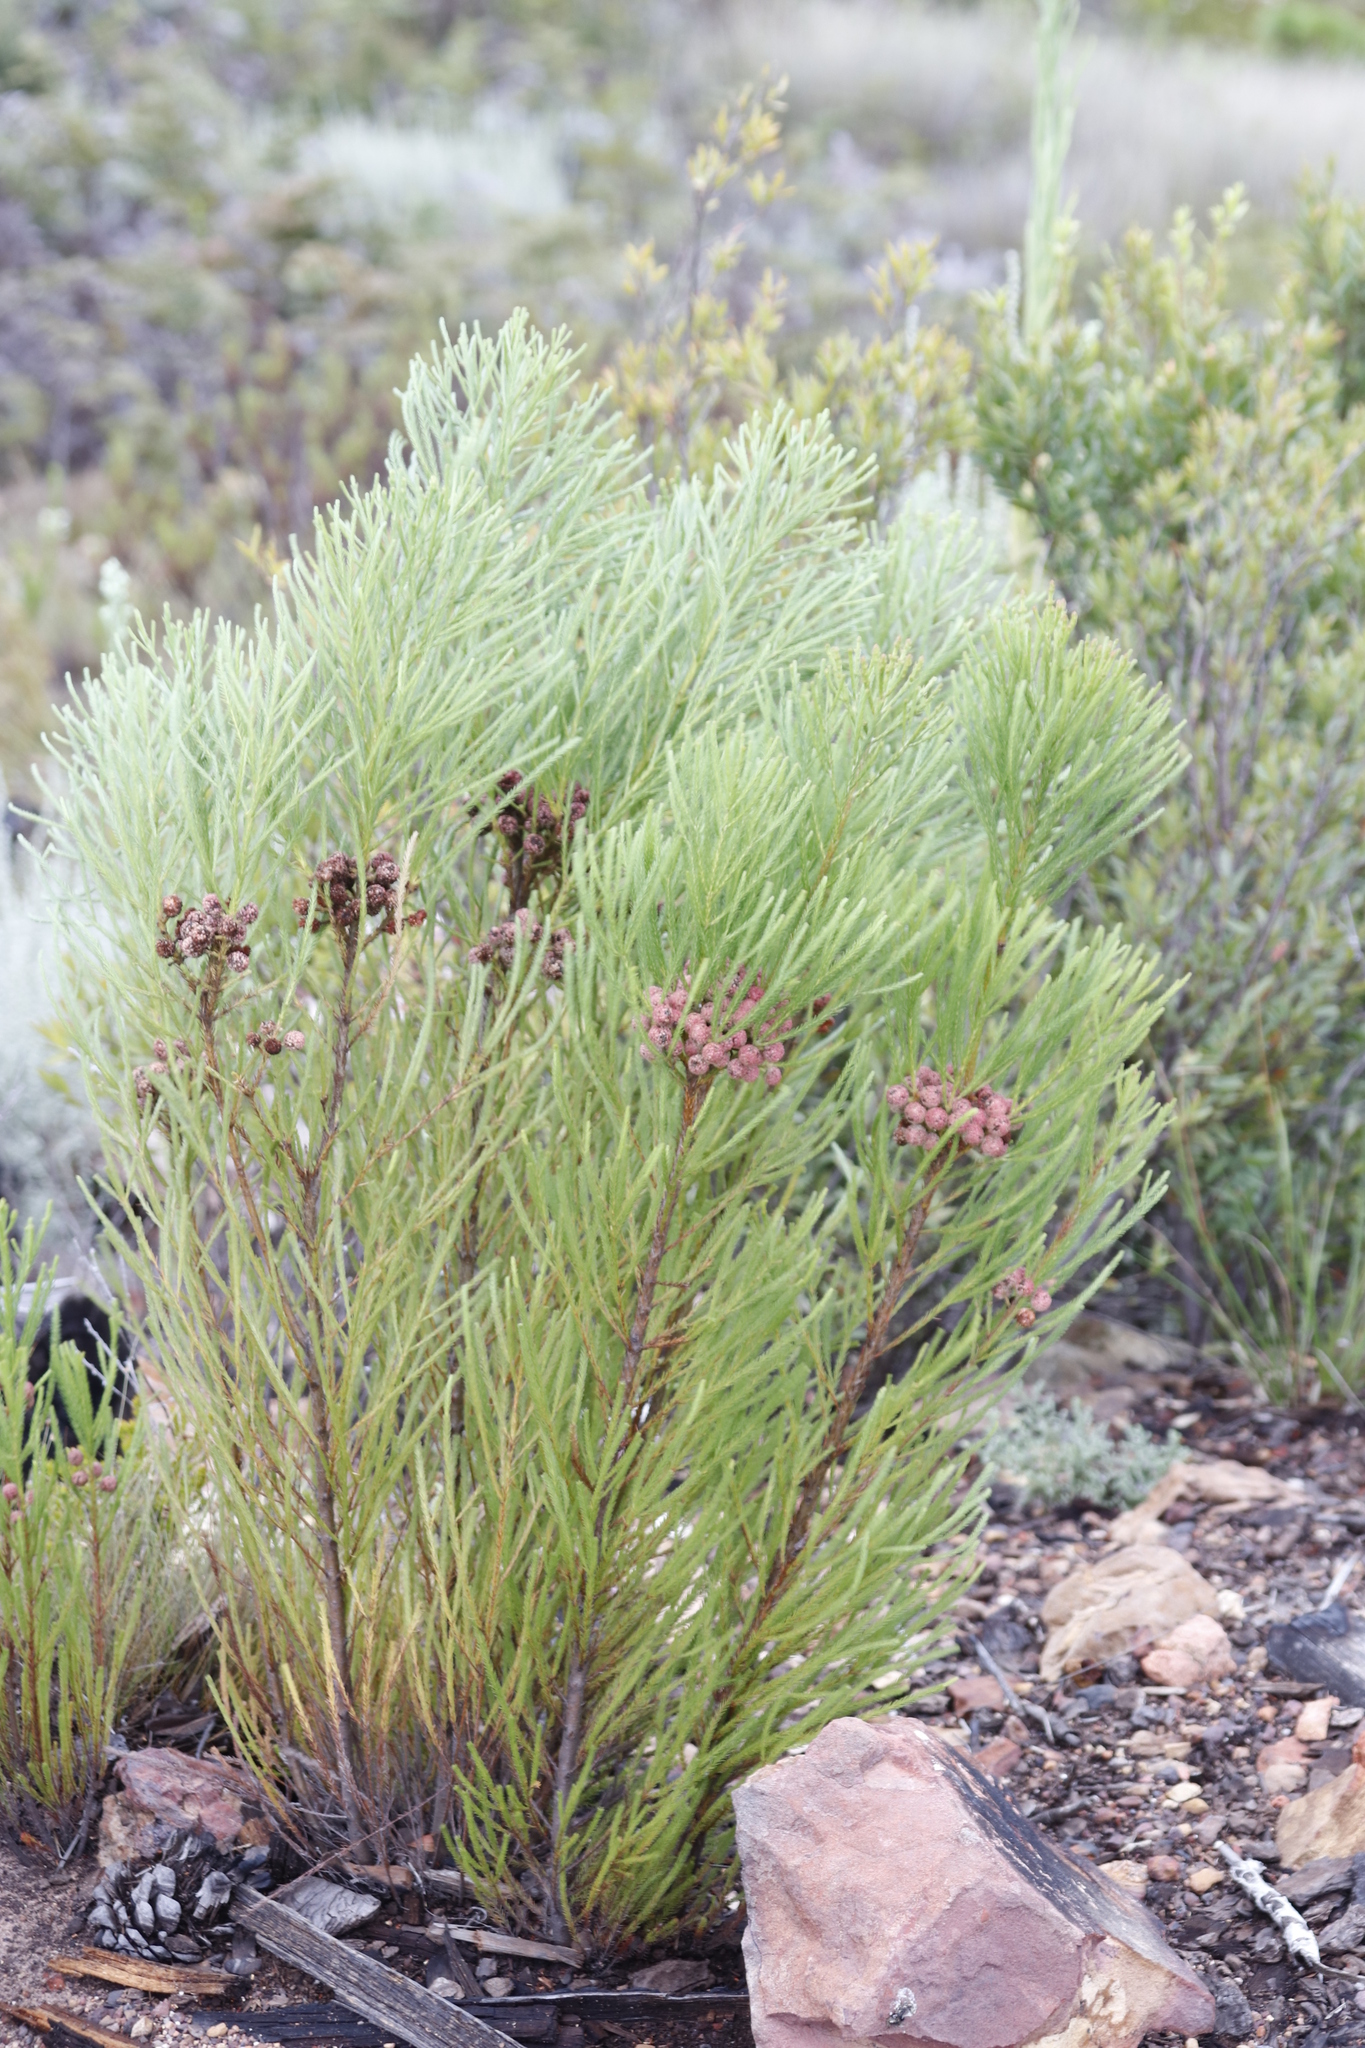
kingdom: Plantae
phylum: Tracheophyta
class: Magnoliopsida
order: Bruniales
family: Bruniaceae
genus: Berzelia
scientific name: Berzelia lanuginosa
